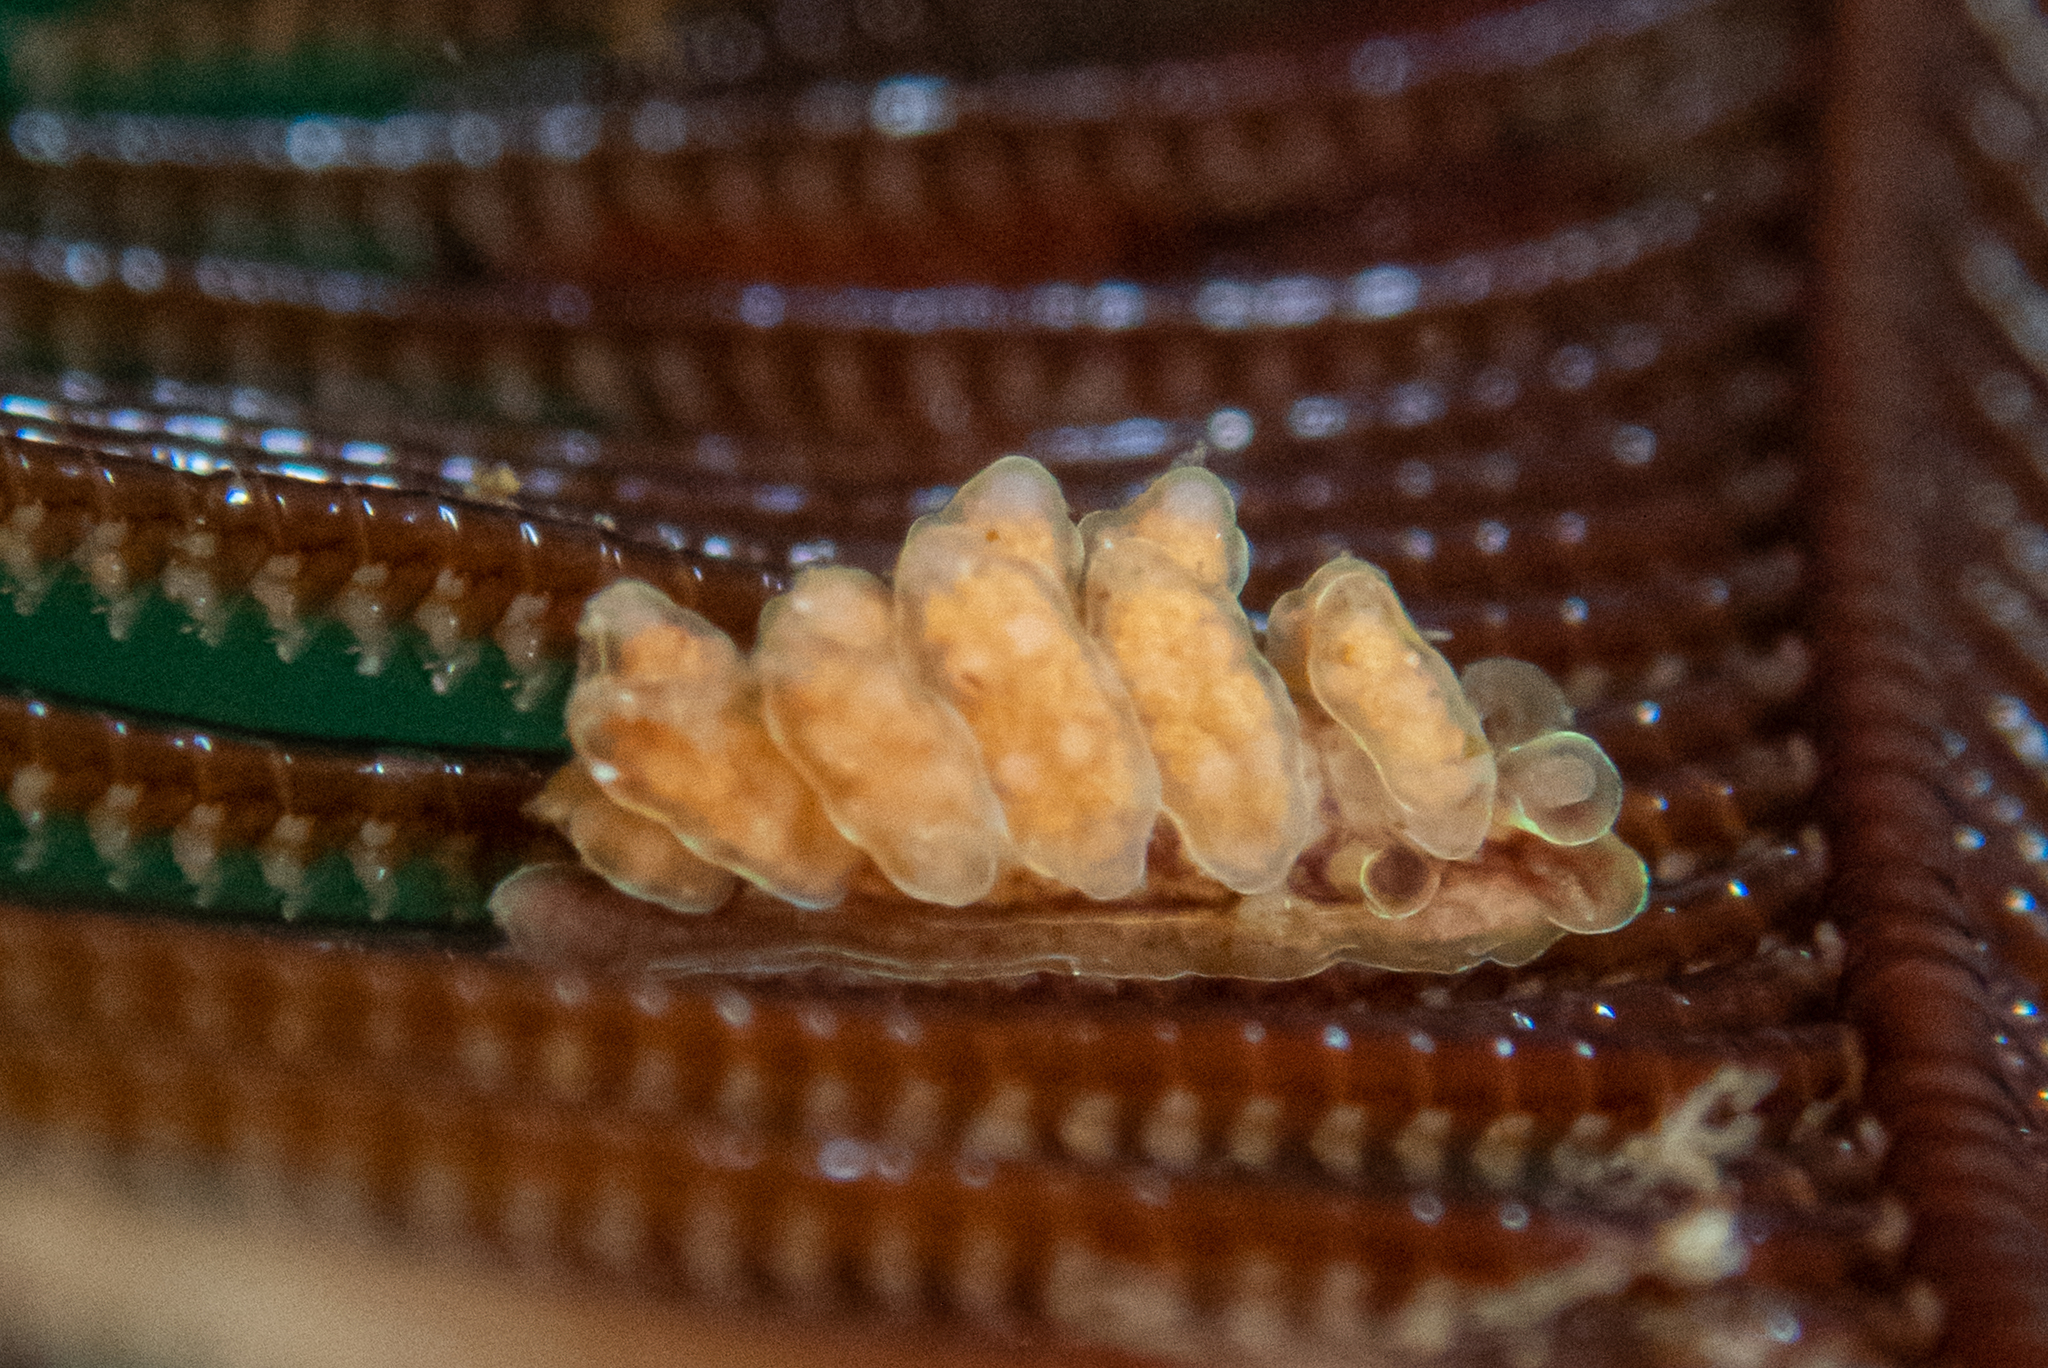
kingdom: Animalia
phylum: Mollusca
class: Gastropoda
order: Nudibranchia
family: Dotidae
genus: Doto
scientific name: Doto columbiana
